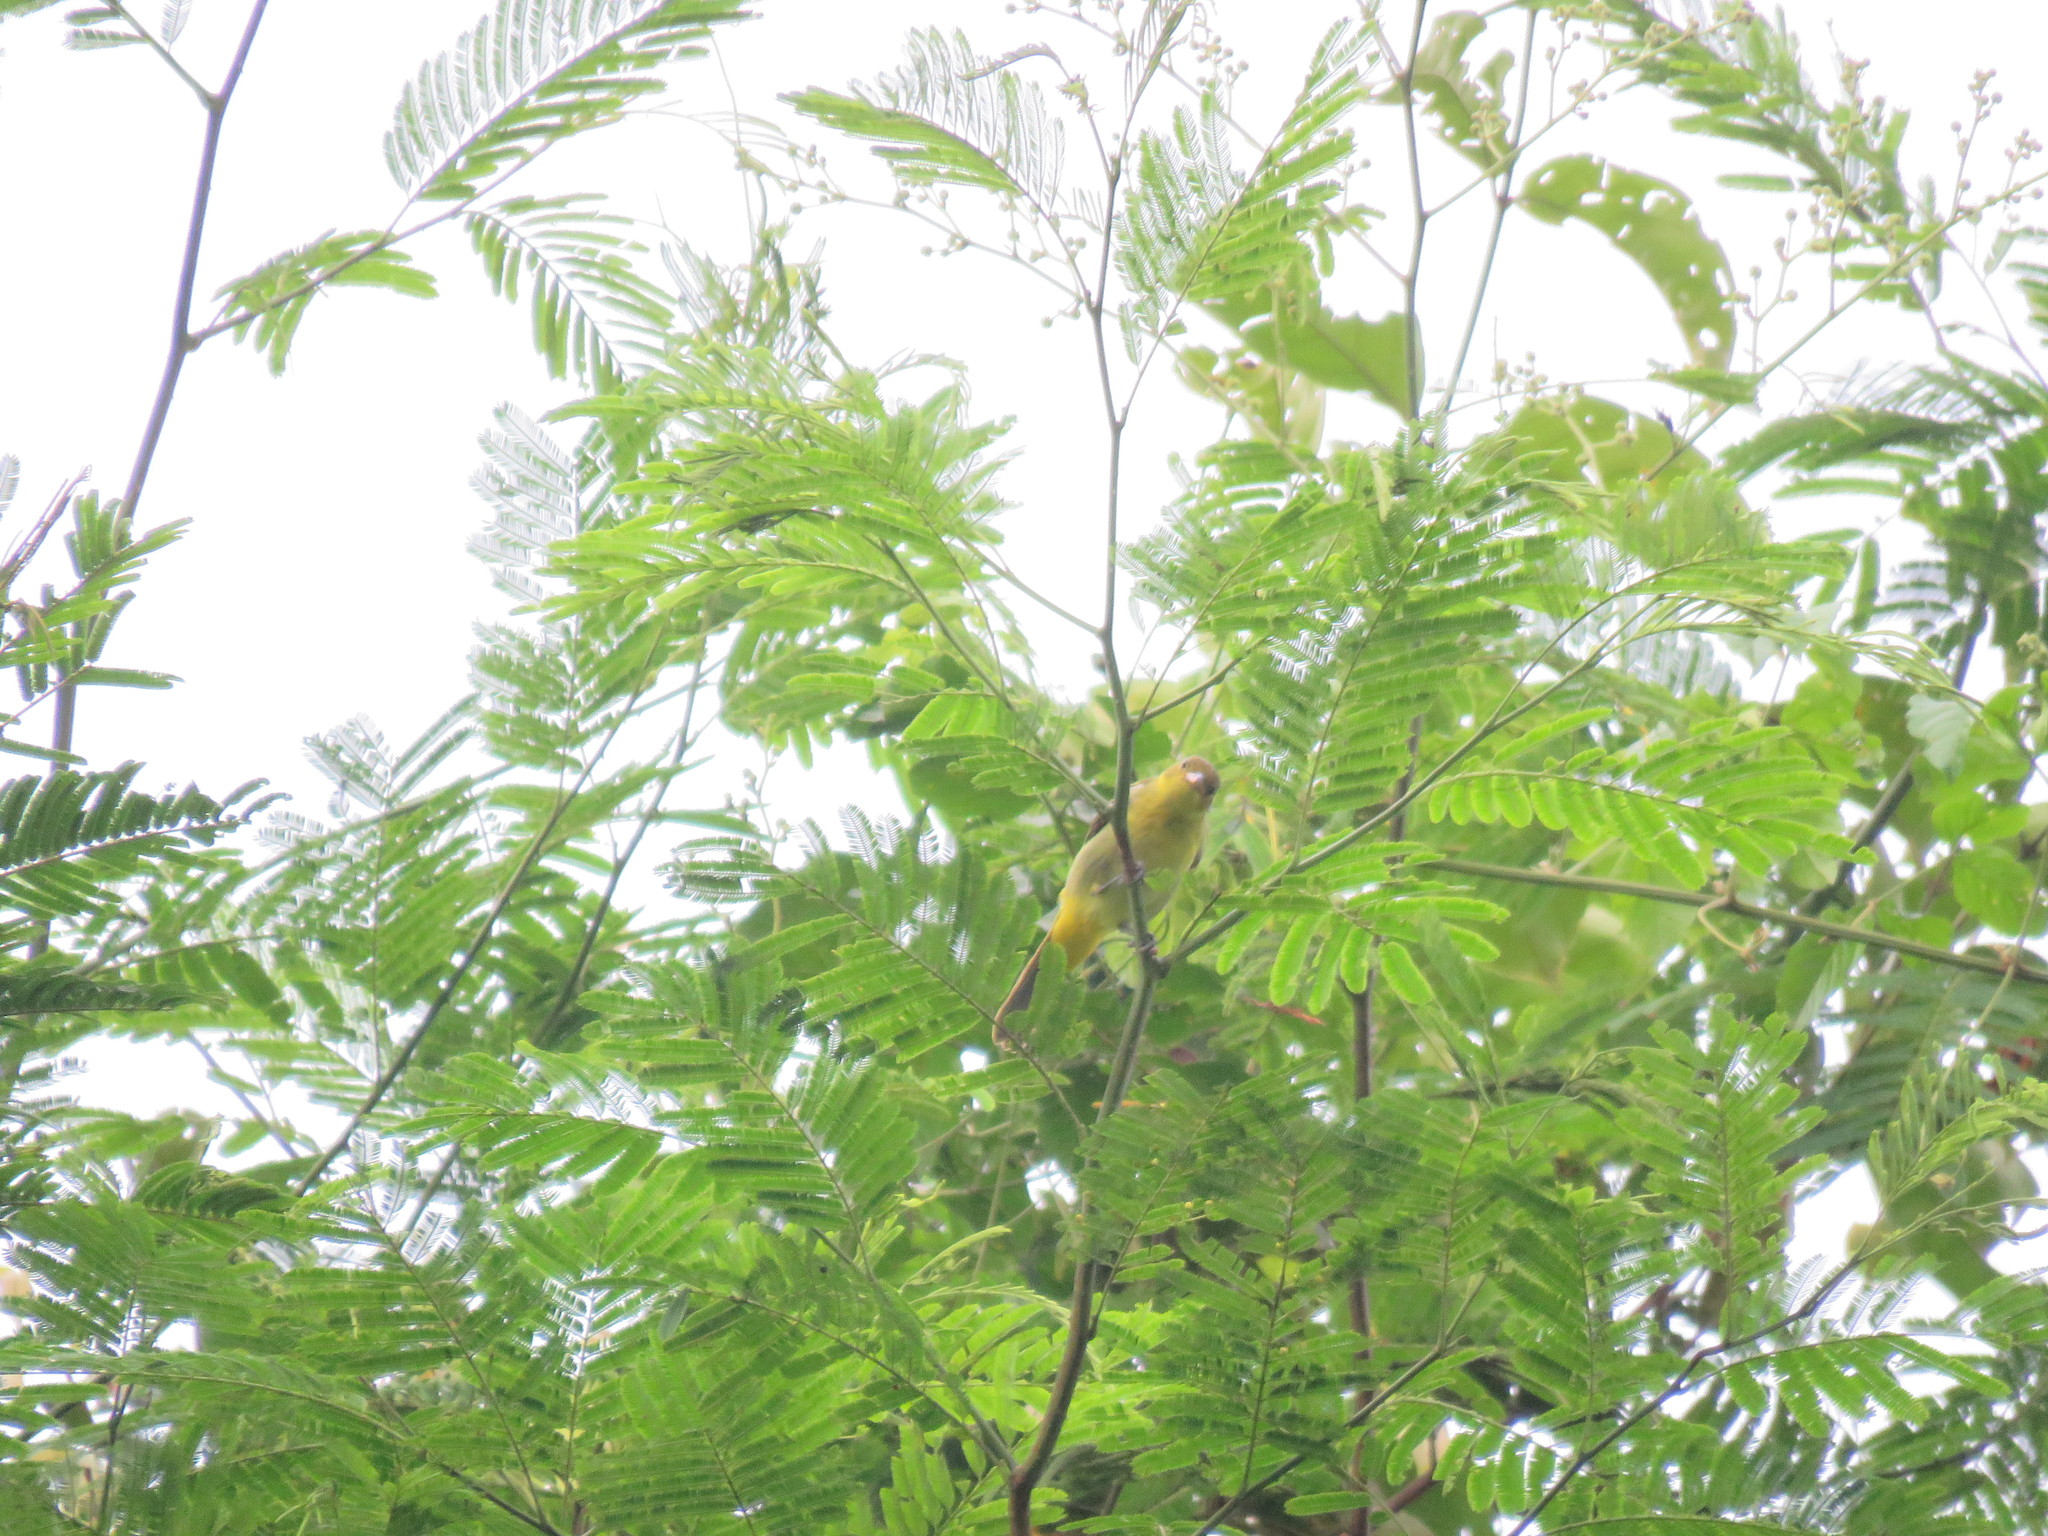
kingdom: Animalia
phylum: Chordata
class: Aves
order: Passeriformes
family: Thraupidae
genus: Hemithraupis
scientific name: Hemithraupis flavicollis
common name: Yellow-backed tanager
